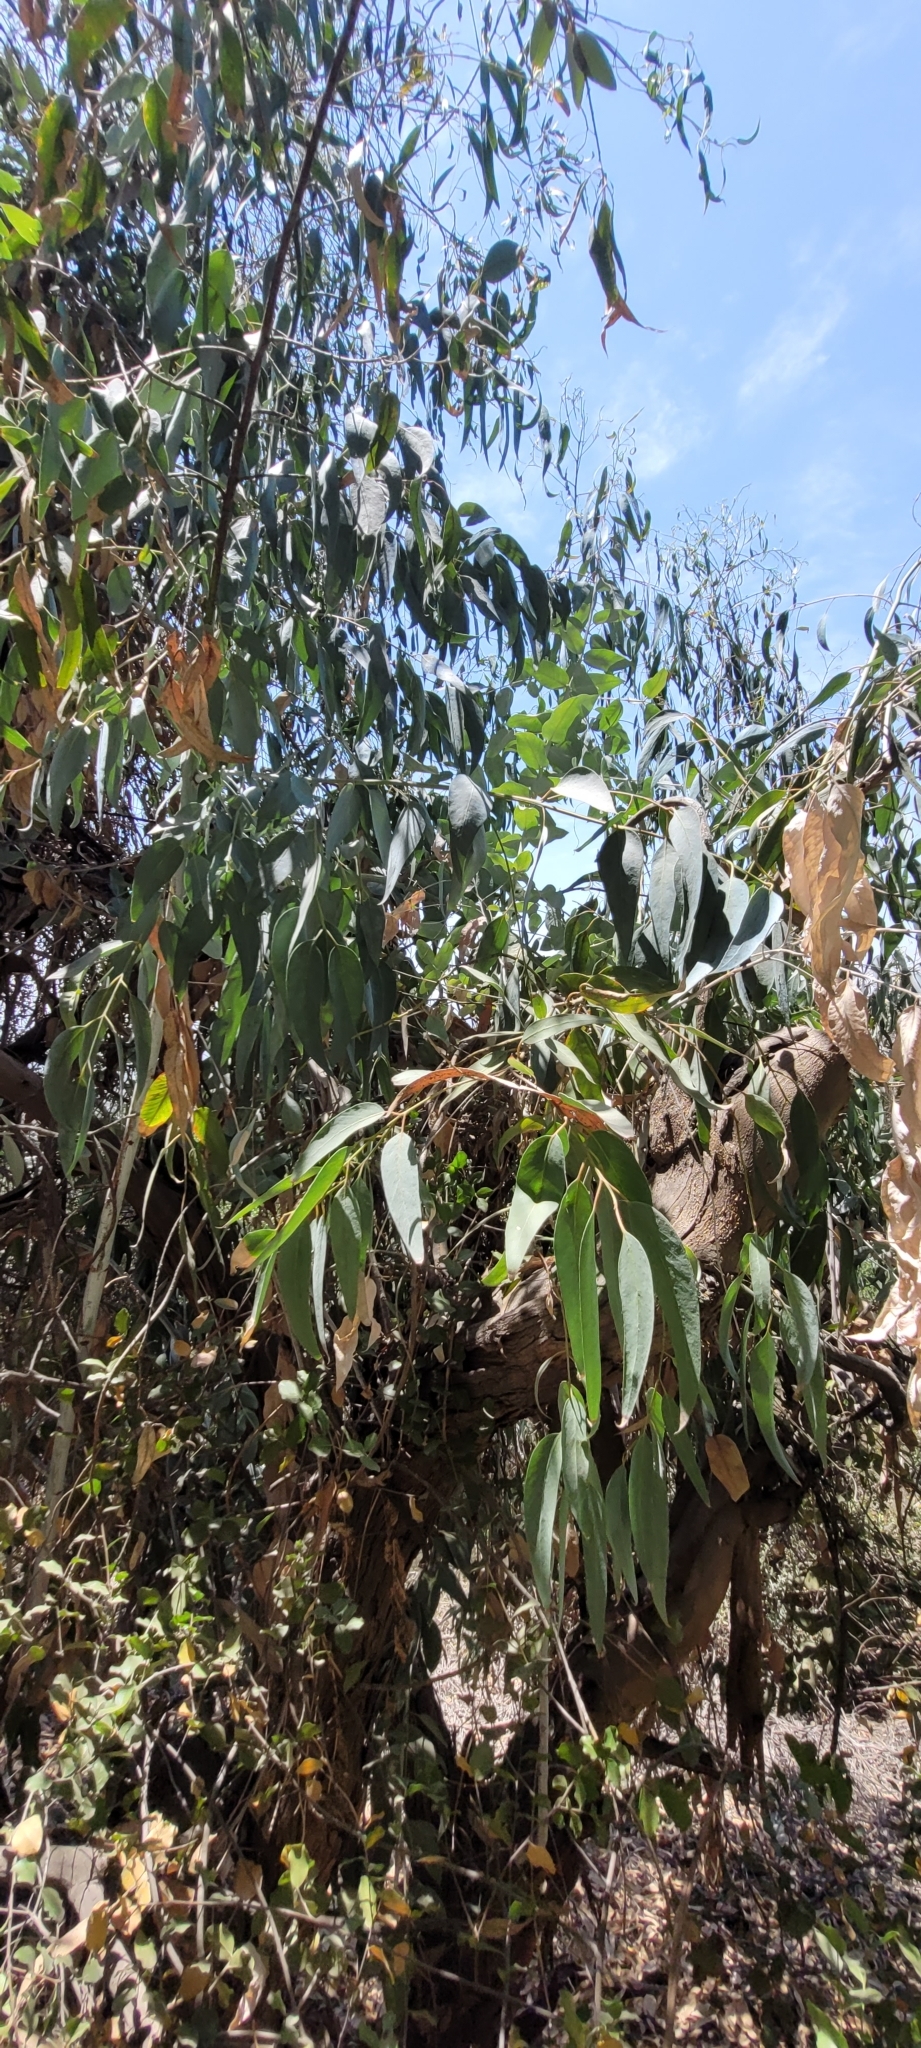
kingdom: Plantae
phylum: Tracheophyta
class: Magnoliopsida
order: Myrtales
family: Myrtaceae
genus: Eucalyptus
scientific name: Eucalyptus globulus
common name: Southern blue-gum
